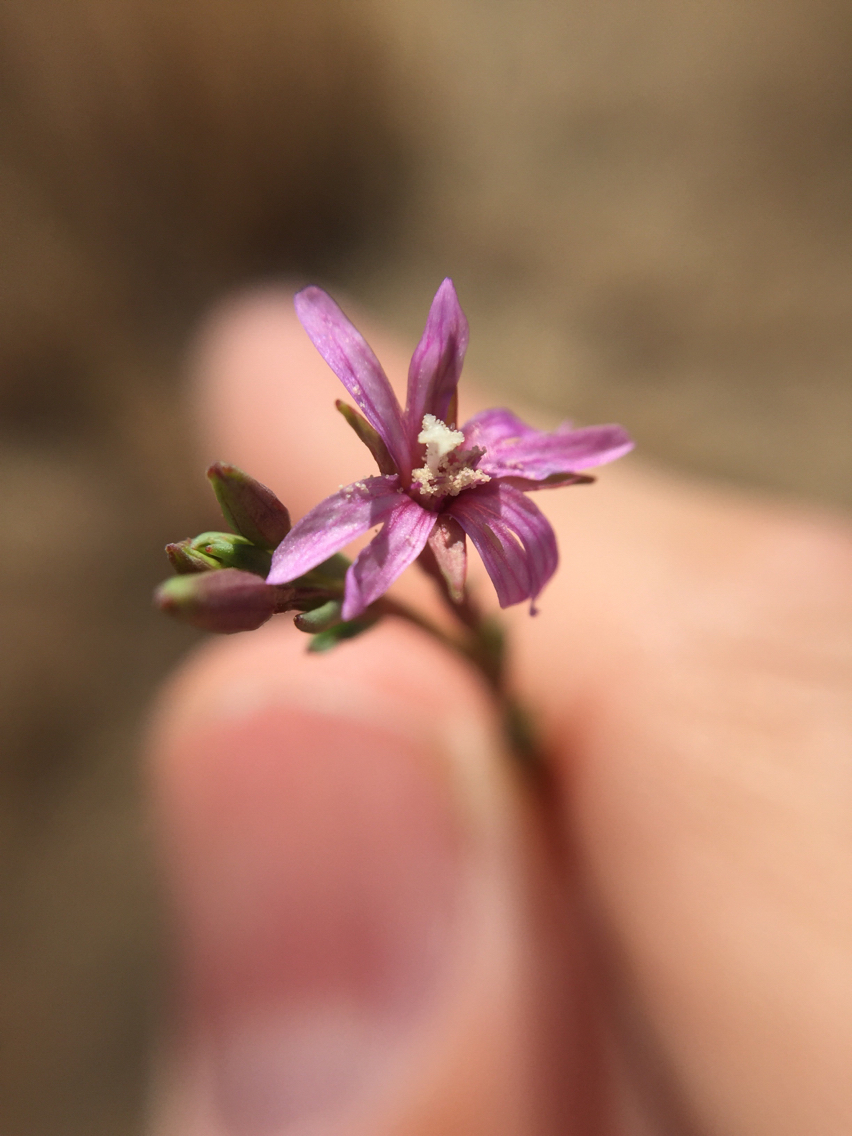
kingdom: Plantae
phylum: Tracheophyta
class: Magnoliopsida
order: Myrtales
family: Onagraceae
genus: Epilobium
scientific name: Epilobium brachycarpum
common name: Annual willowherb
